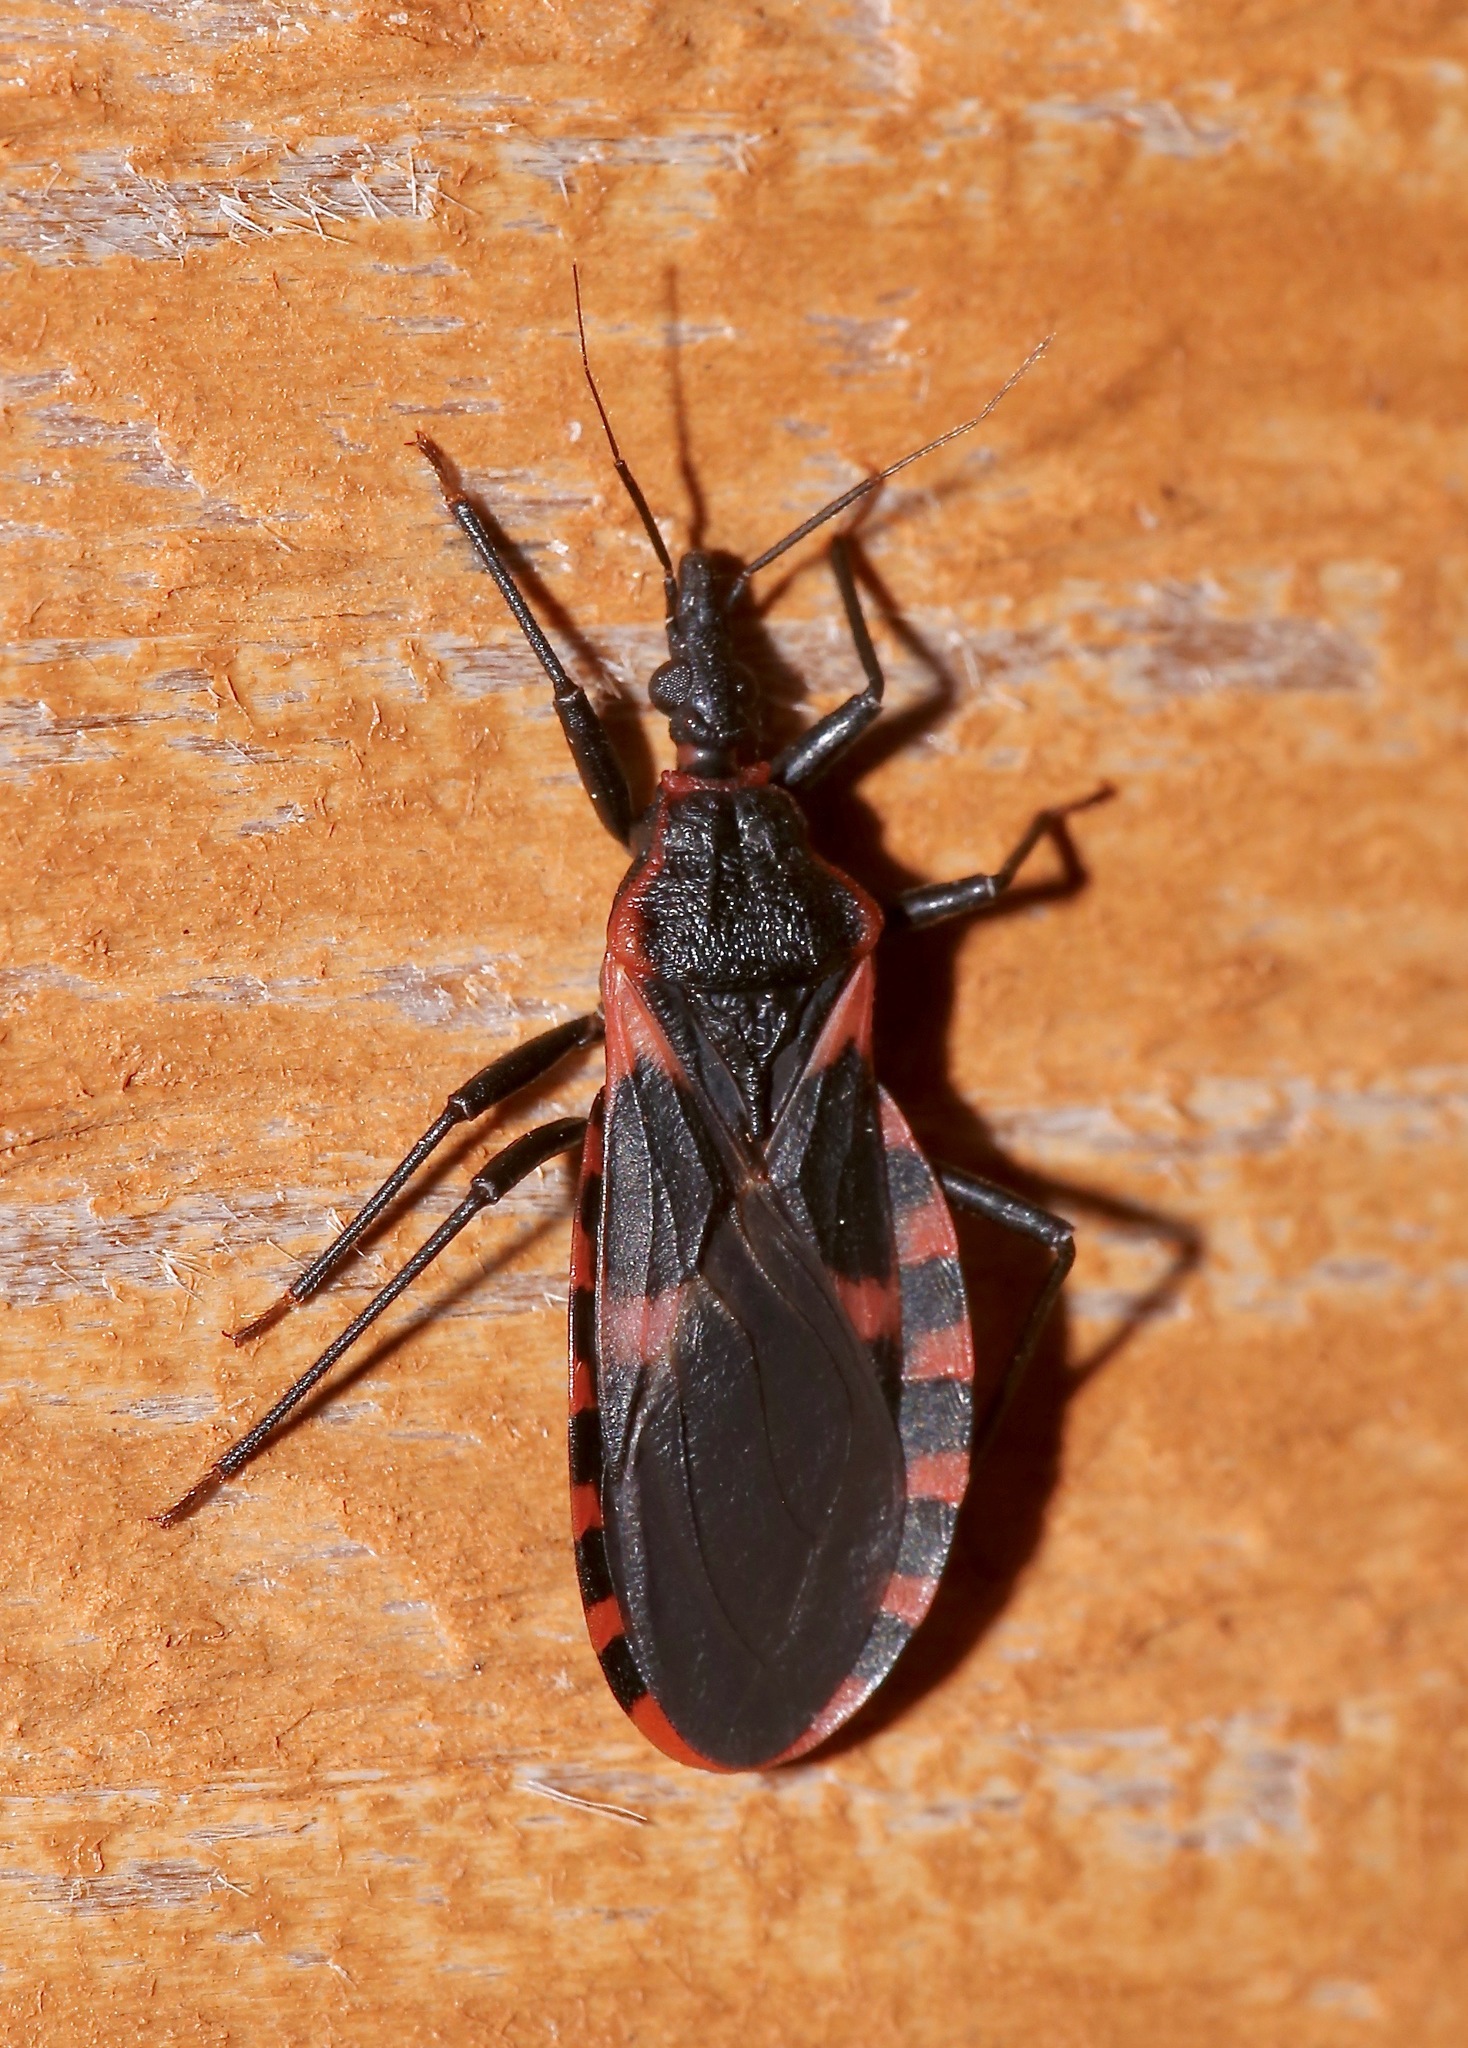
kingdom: Animalia
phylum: Arthropoda
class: Insecta
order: Hemiptera
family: Reduviidae
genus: Triatoma
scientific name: Triatoma sanguisuga
